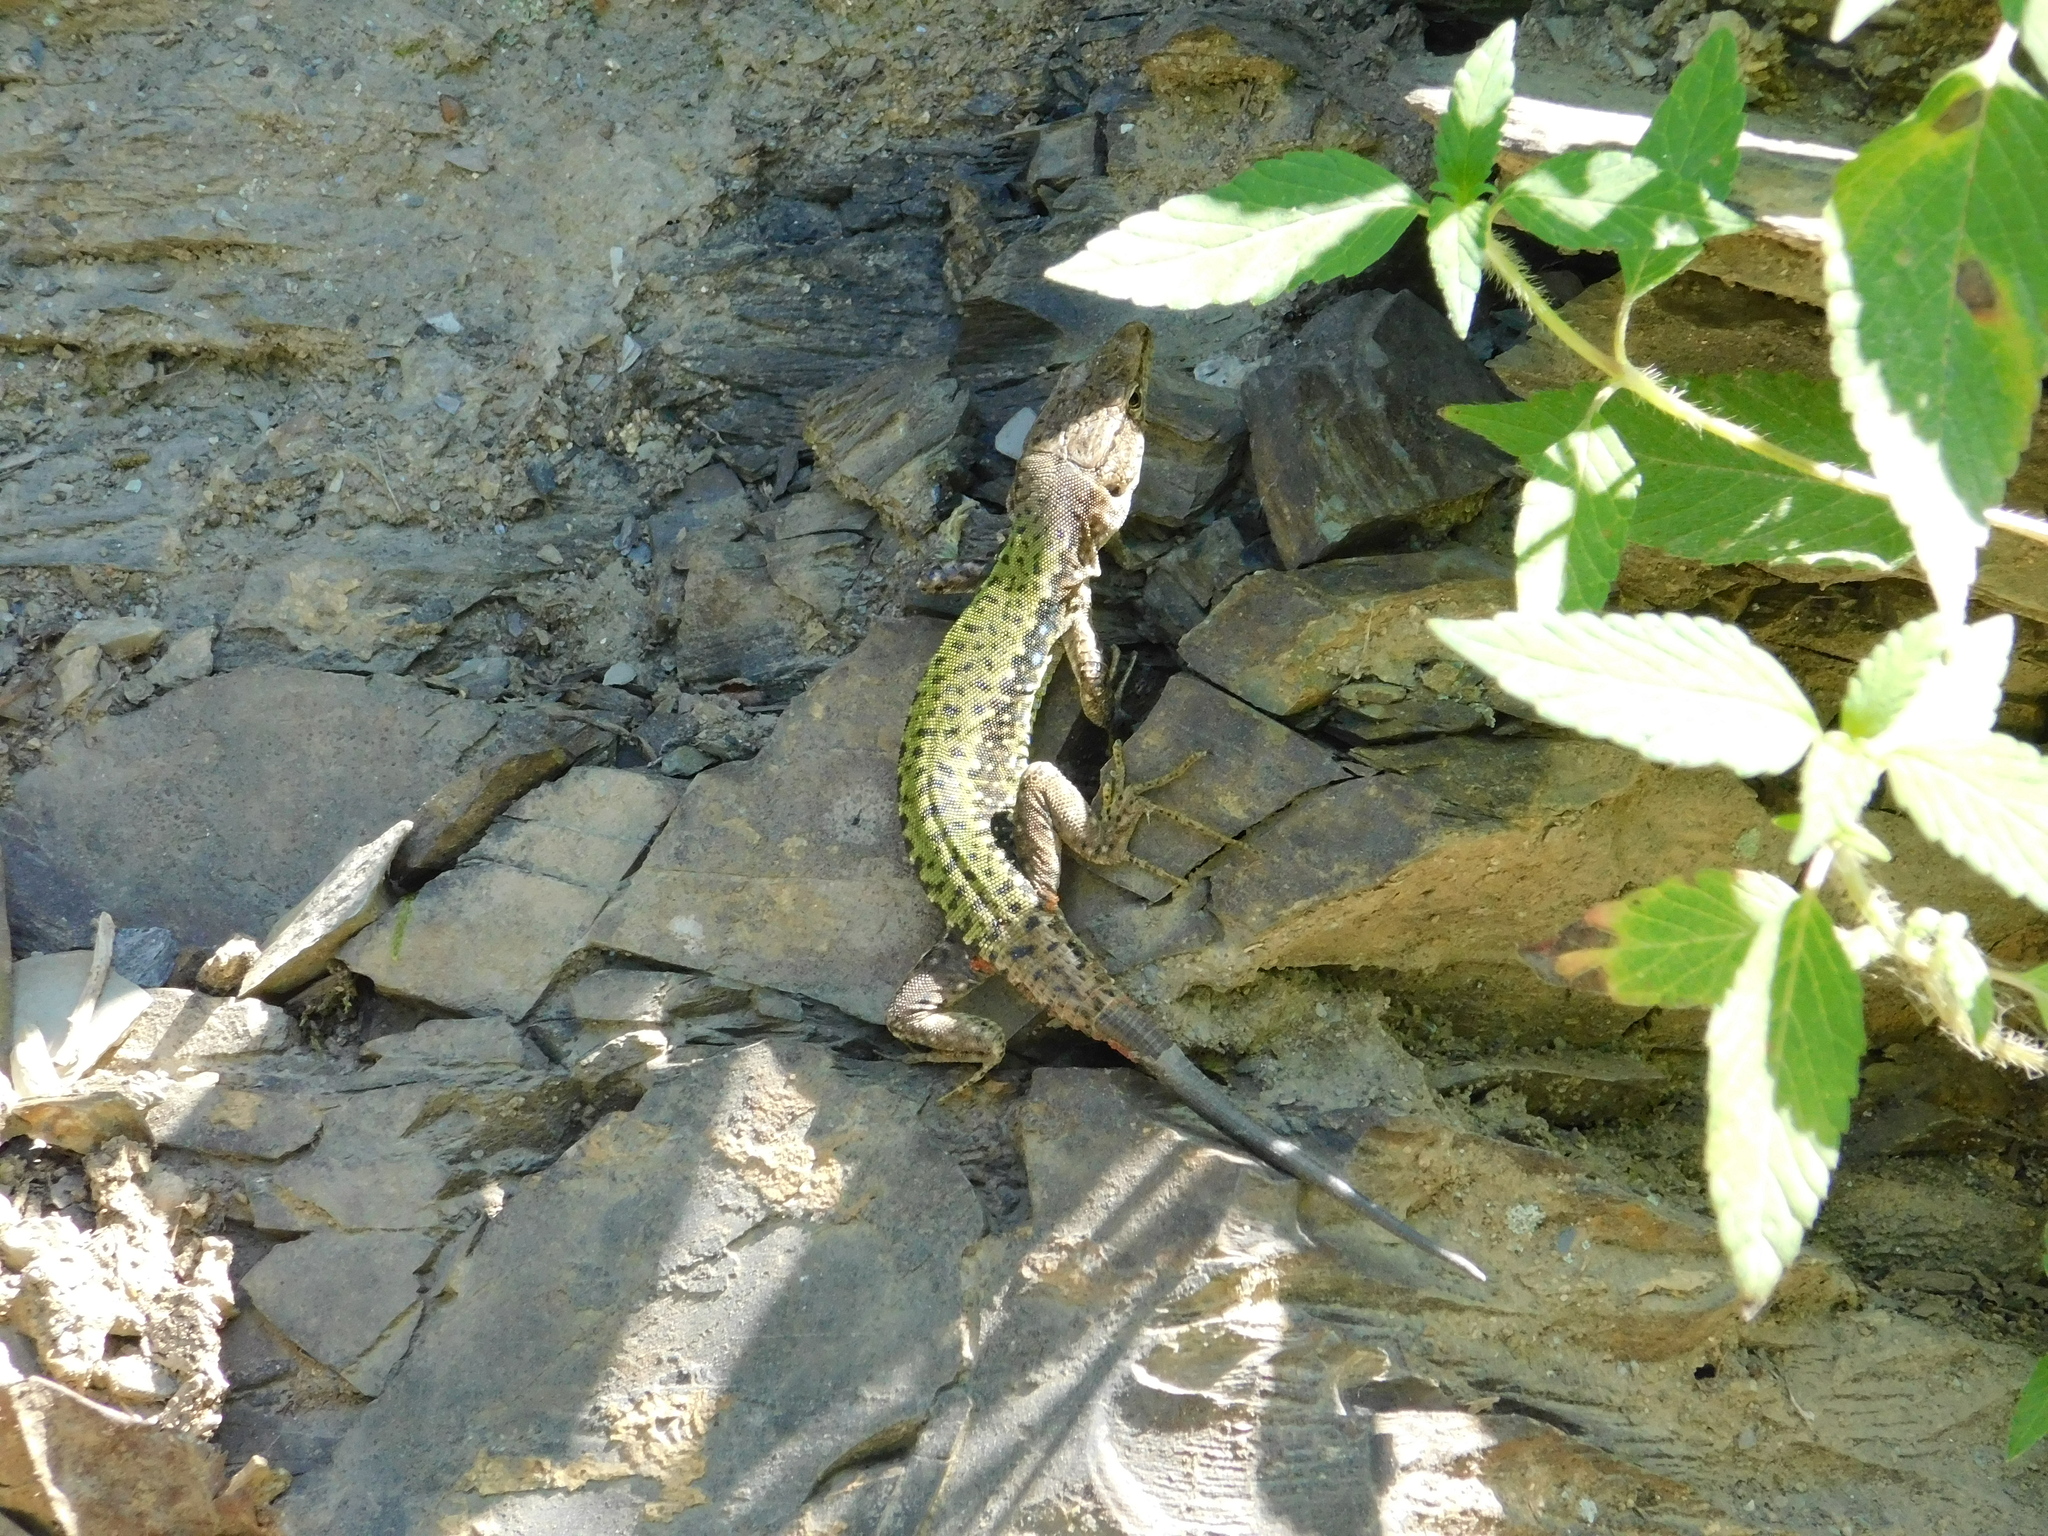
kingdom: Animalia
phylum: Chordata
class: Squamata
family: Lacertidae
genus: Darevskia
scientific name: Darevskia brauneri
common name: Brauner's rock lizard
